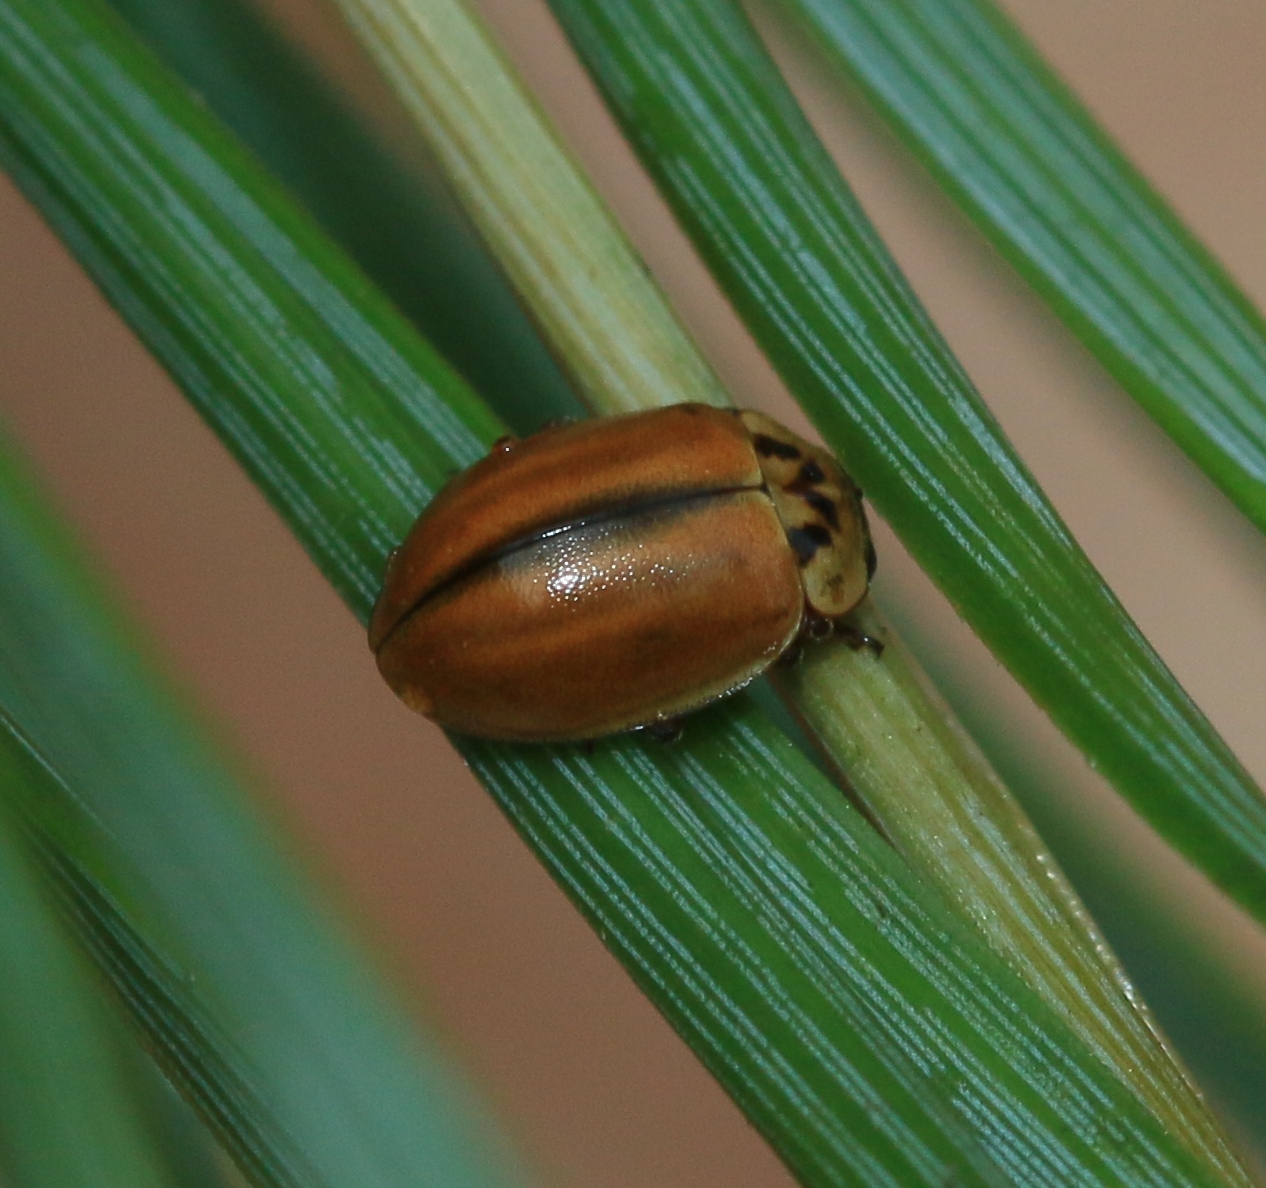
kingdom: Animalia
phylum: Arthropoda
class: Insecta
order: Coleoptera
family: Coccinellidae
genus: Aphidecta
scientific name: Aphidecta obliterata
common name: Larch ladybird
